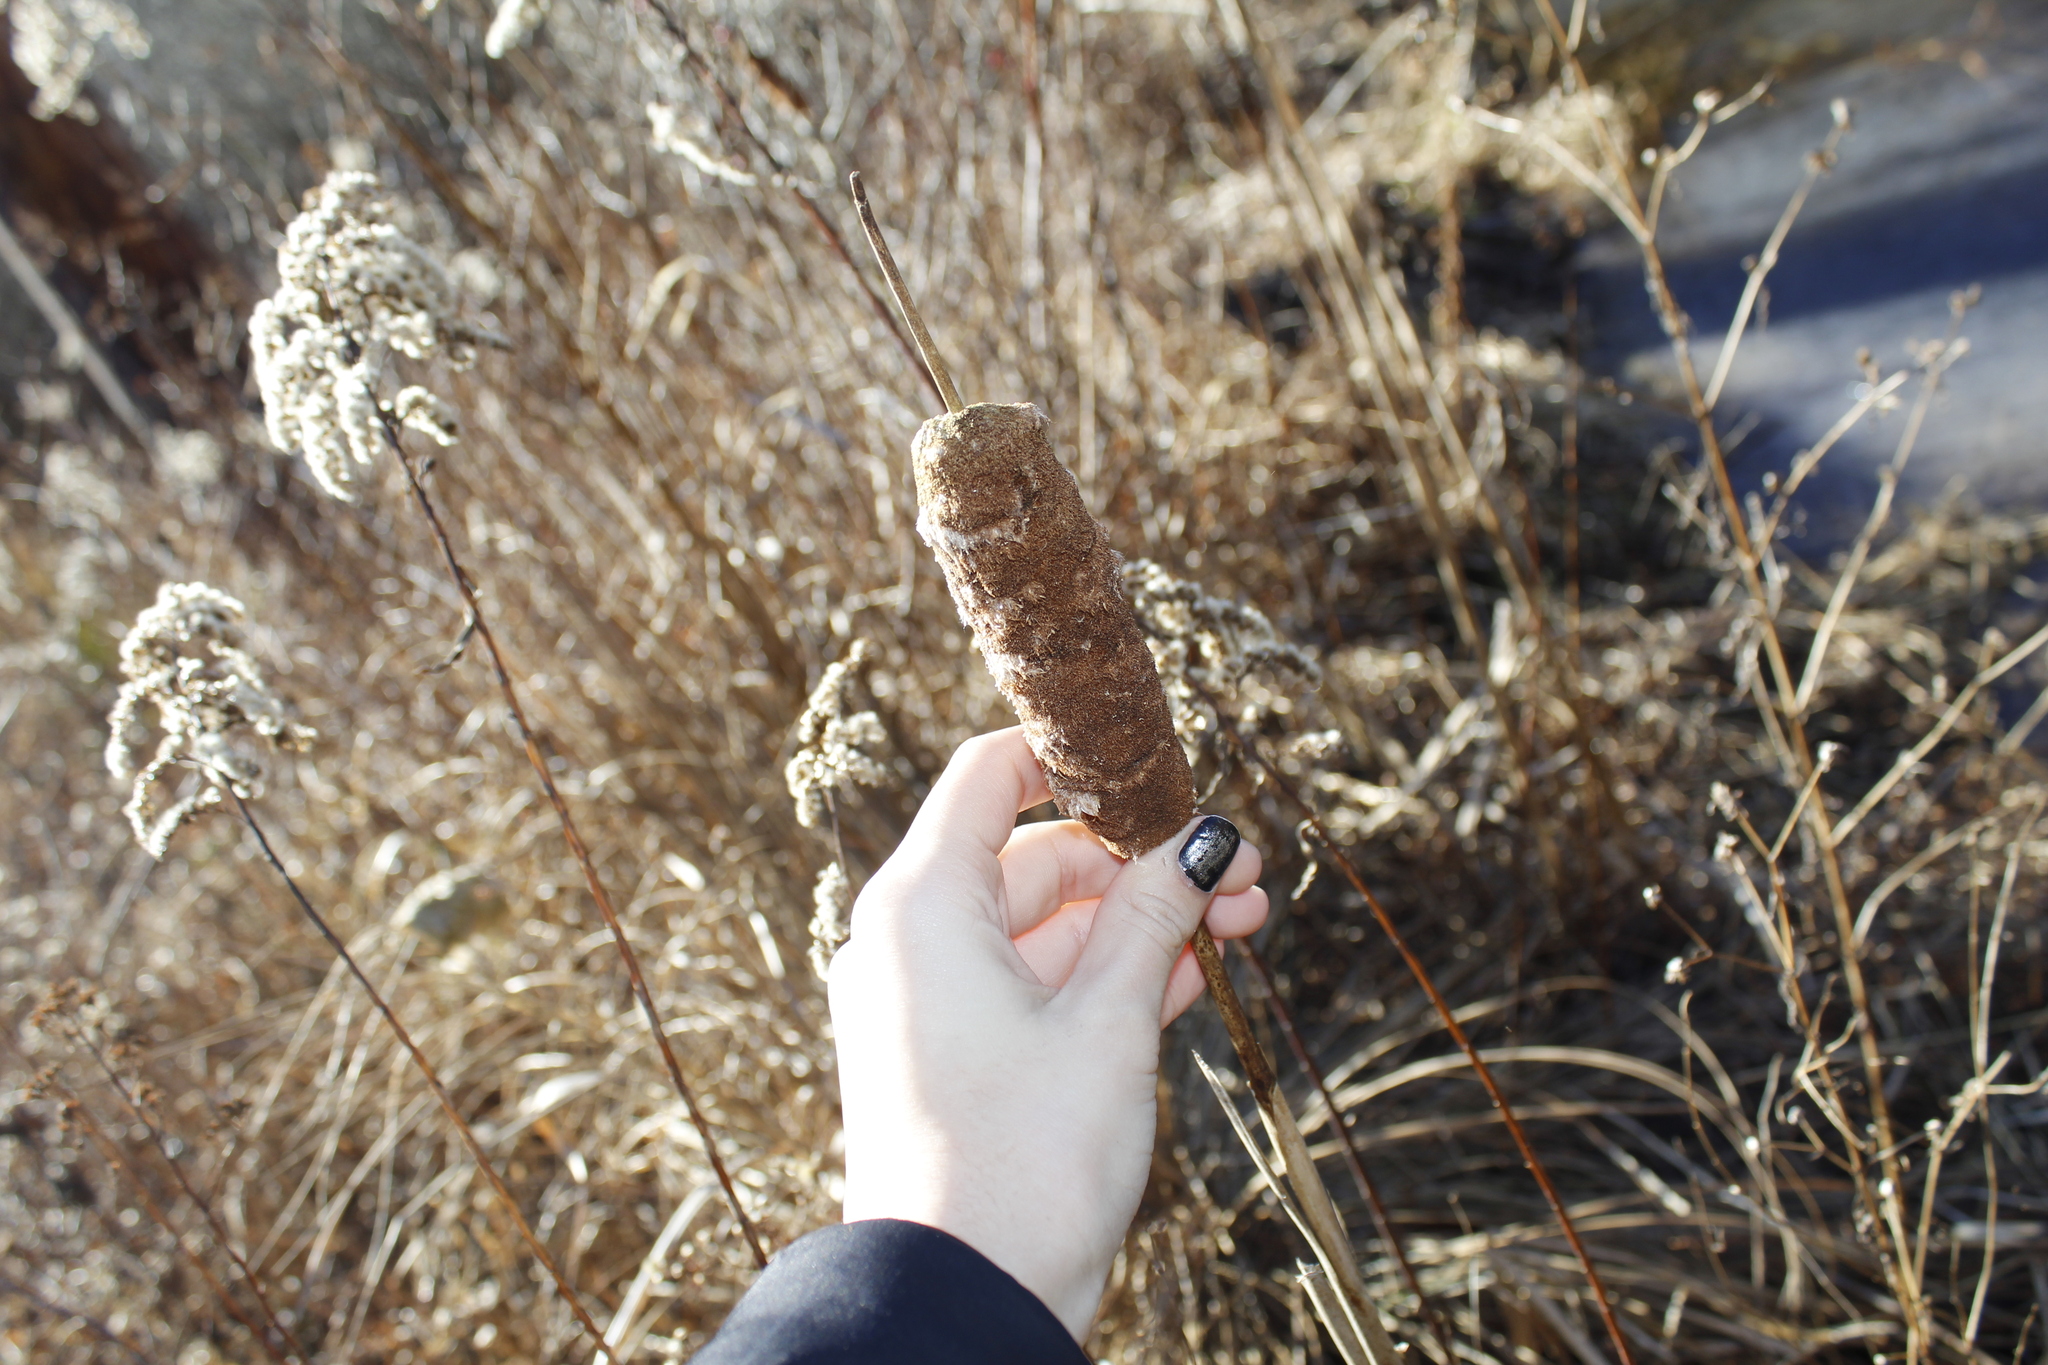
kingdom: Plantae
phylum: Tracheophyta
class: Liliopsida
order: Poales
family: Typhaceae
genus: Typha
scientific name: Typha latifolia
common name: Broadleaf cattail
